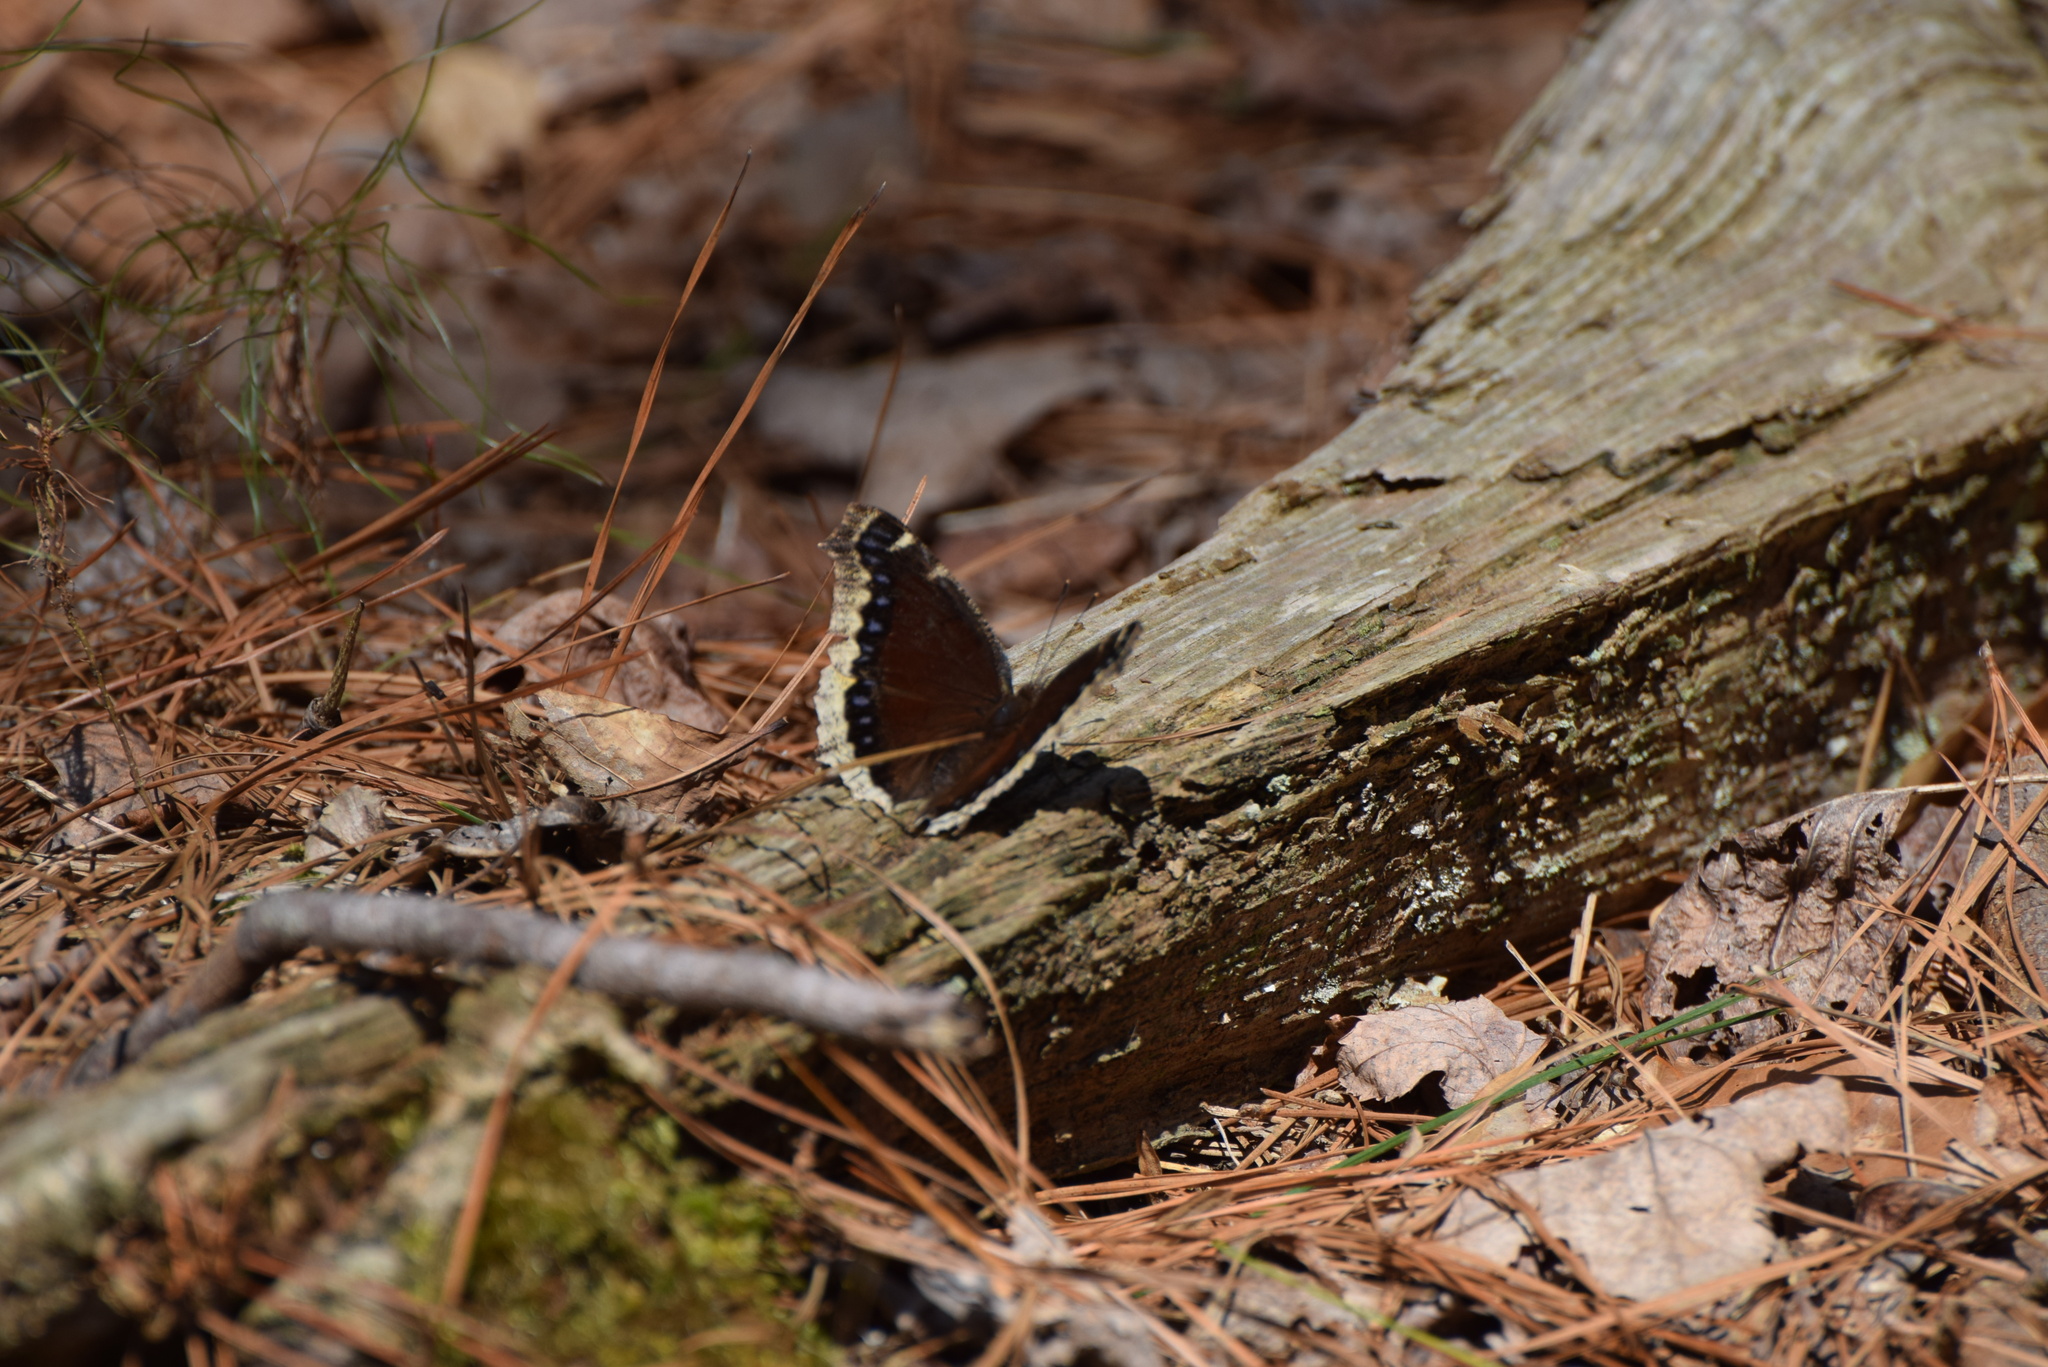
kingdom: Animalia
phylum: Arthropoda
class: Insecta
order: Lepidoptera
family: Nymphalidae
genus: Nymphalis
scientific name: Nymphalis antiopa
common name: Camberwell beauty
